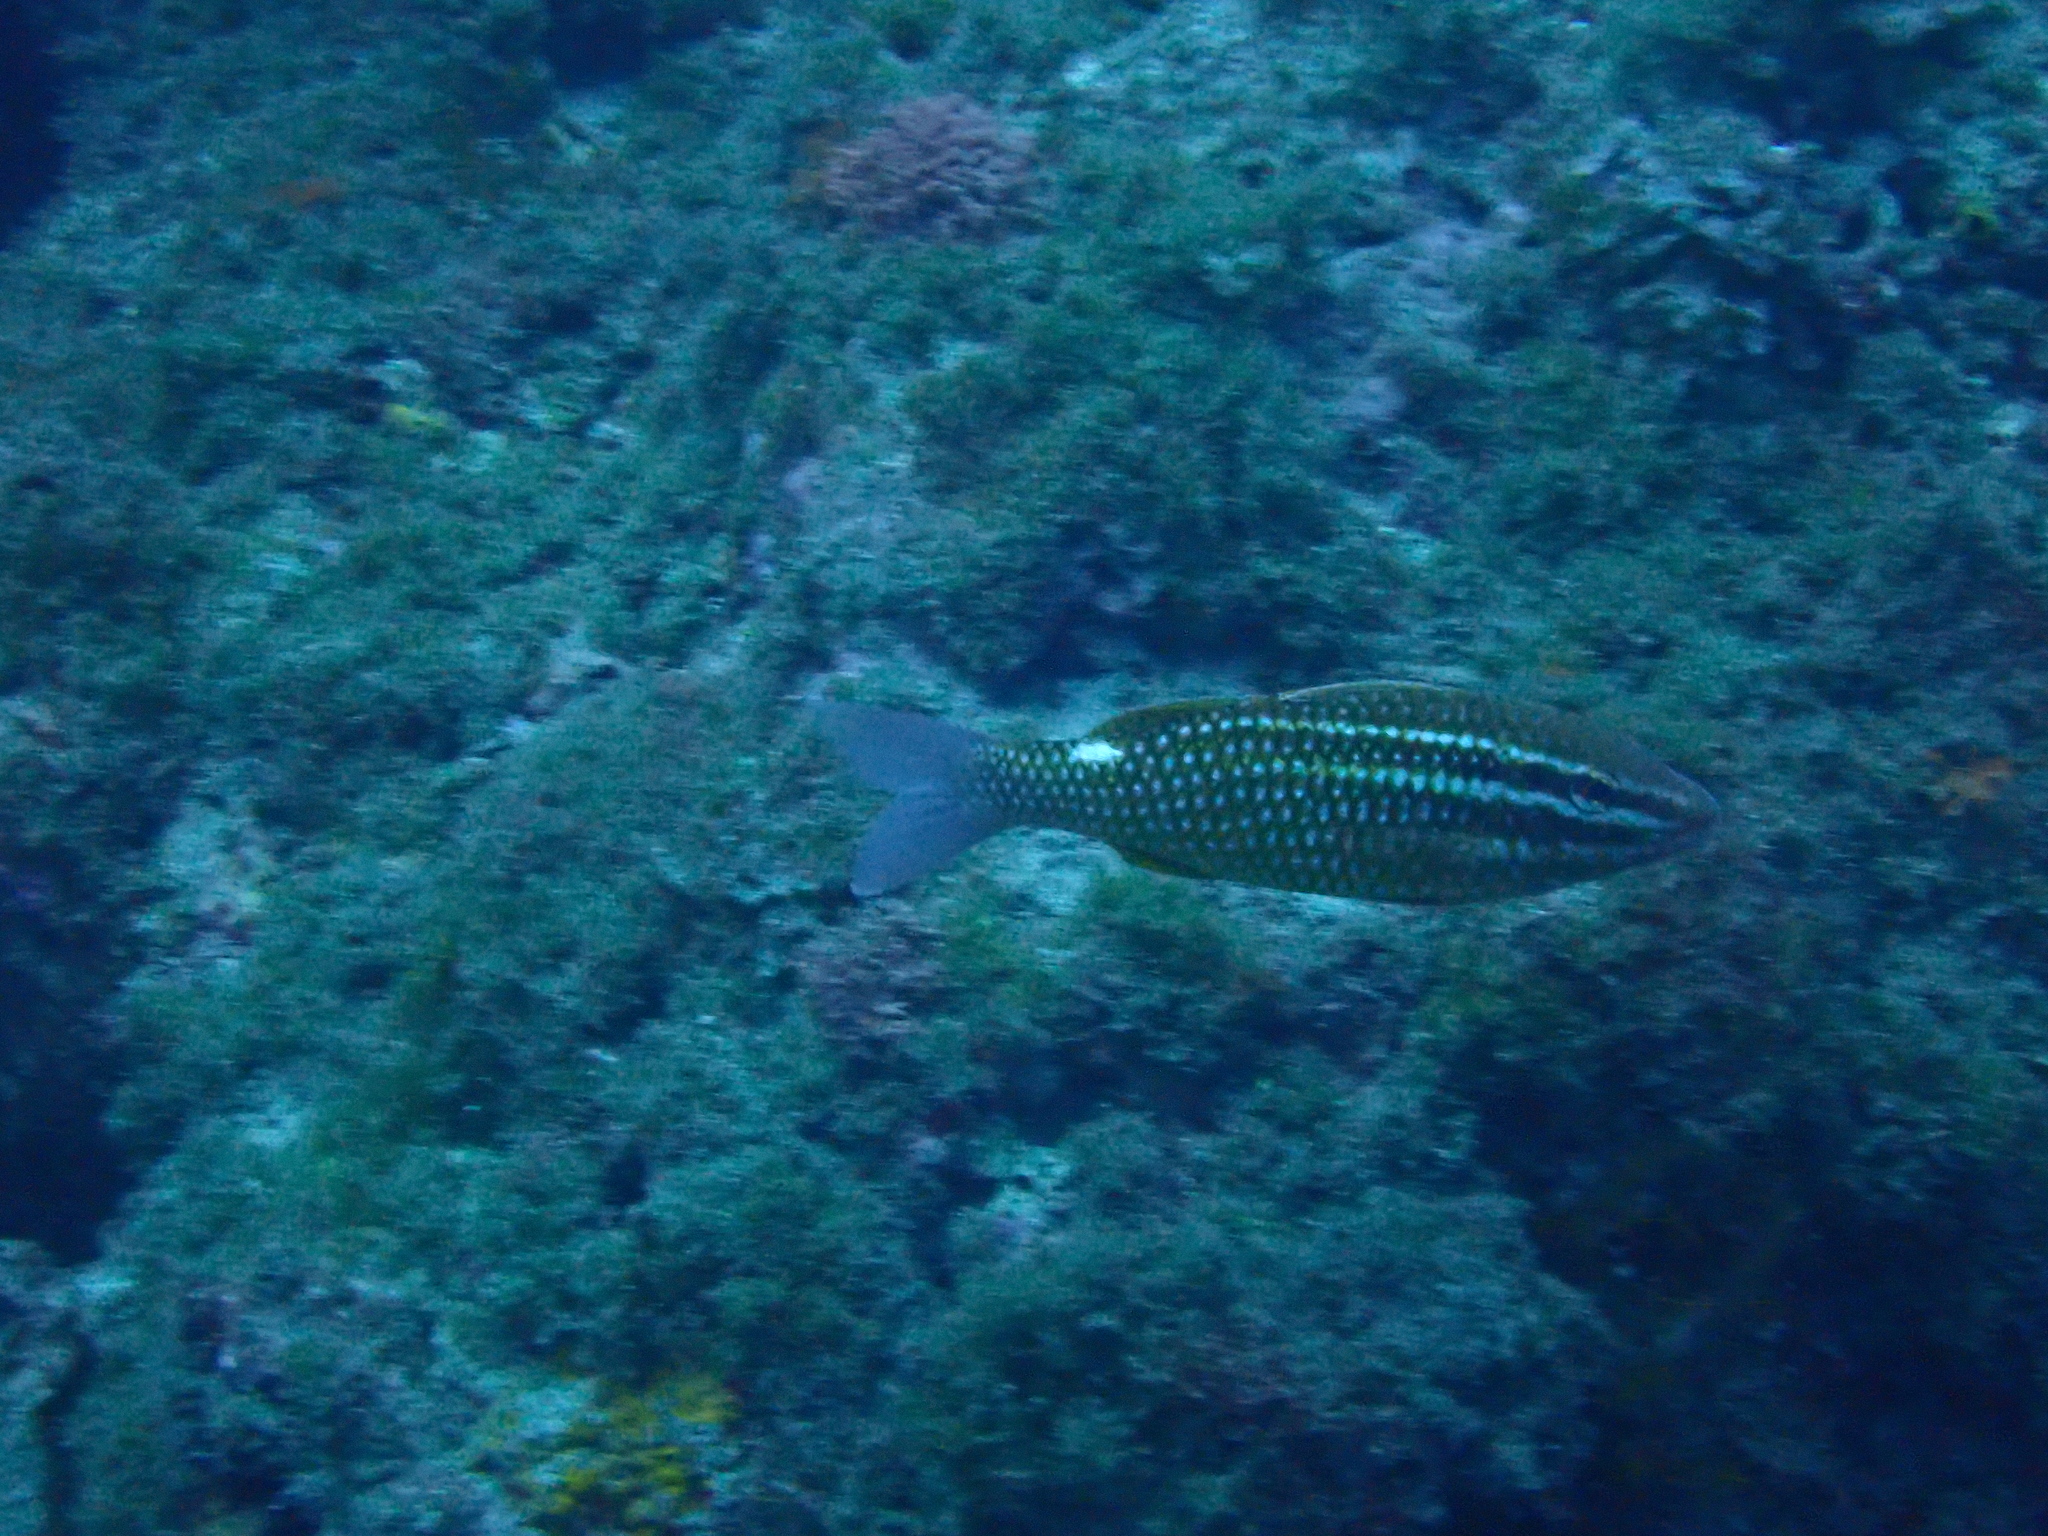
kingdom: Animalia
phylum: Chordata
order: Perciformes
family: Mullidae
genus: Parupeneus
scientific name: Parupeneus ciliatus
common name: White-lined goatfish
